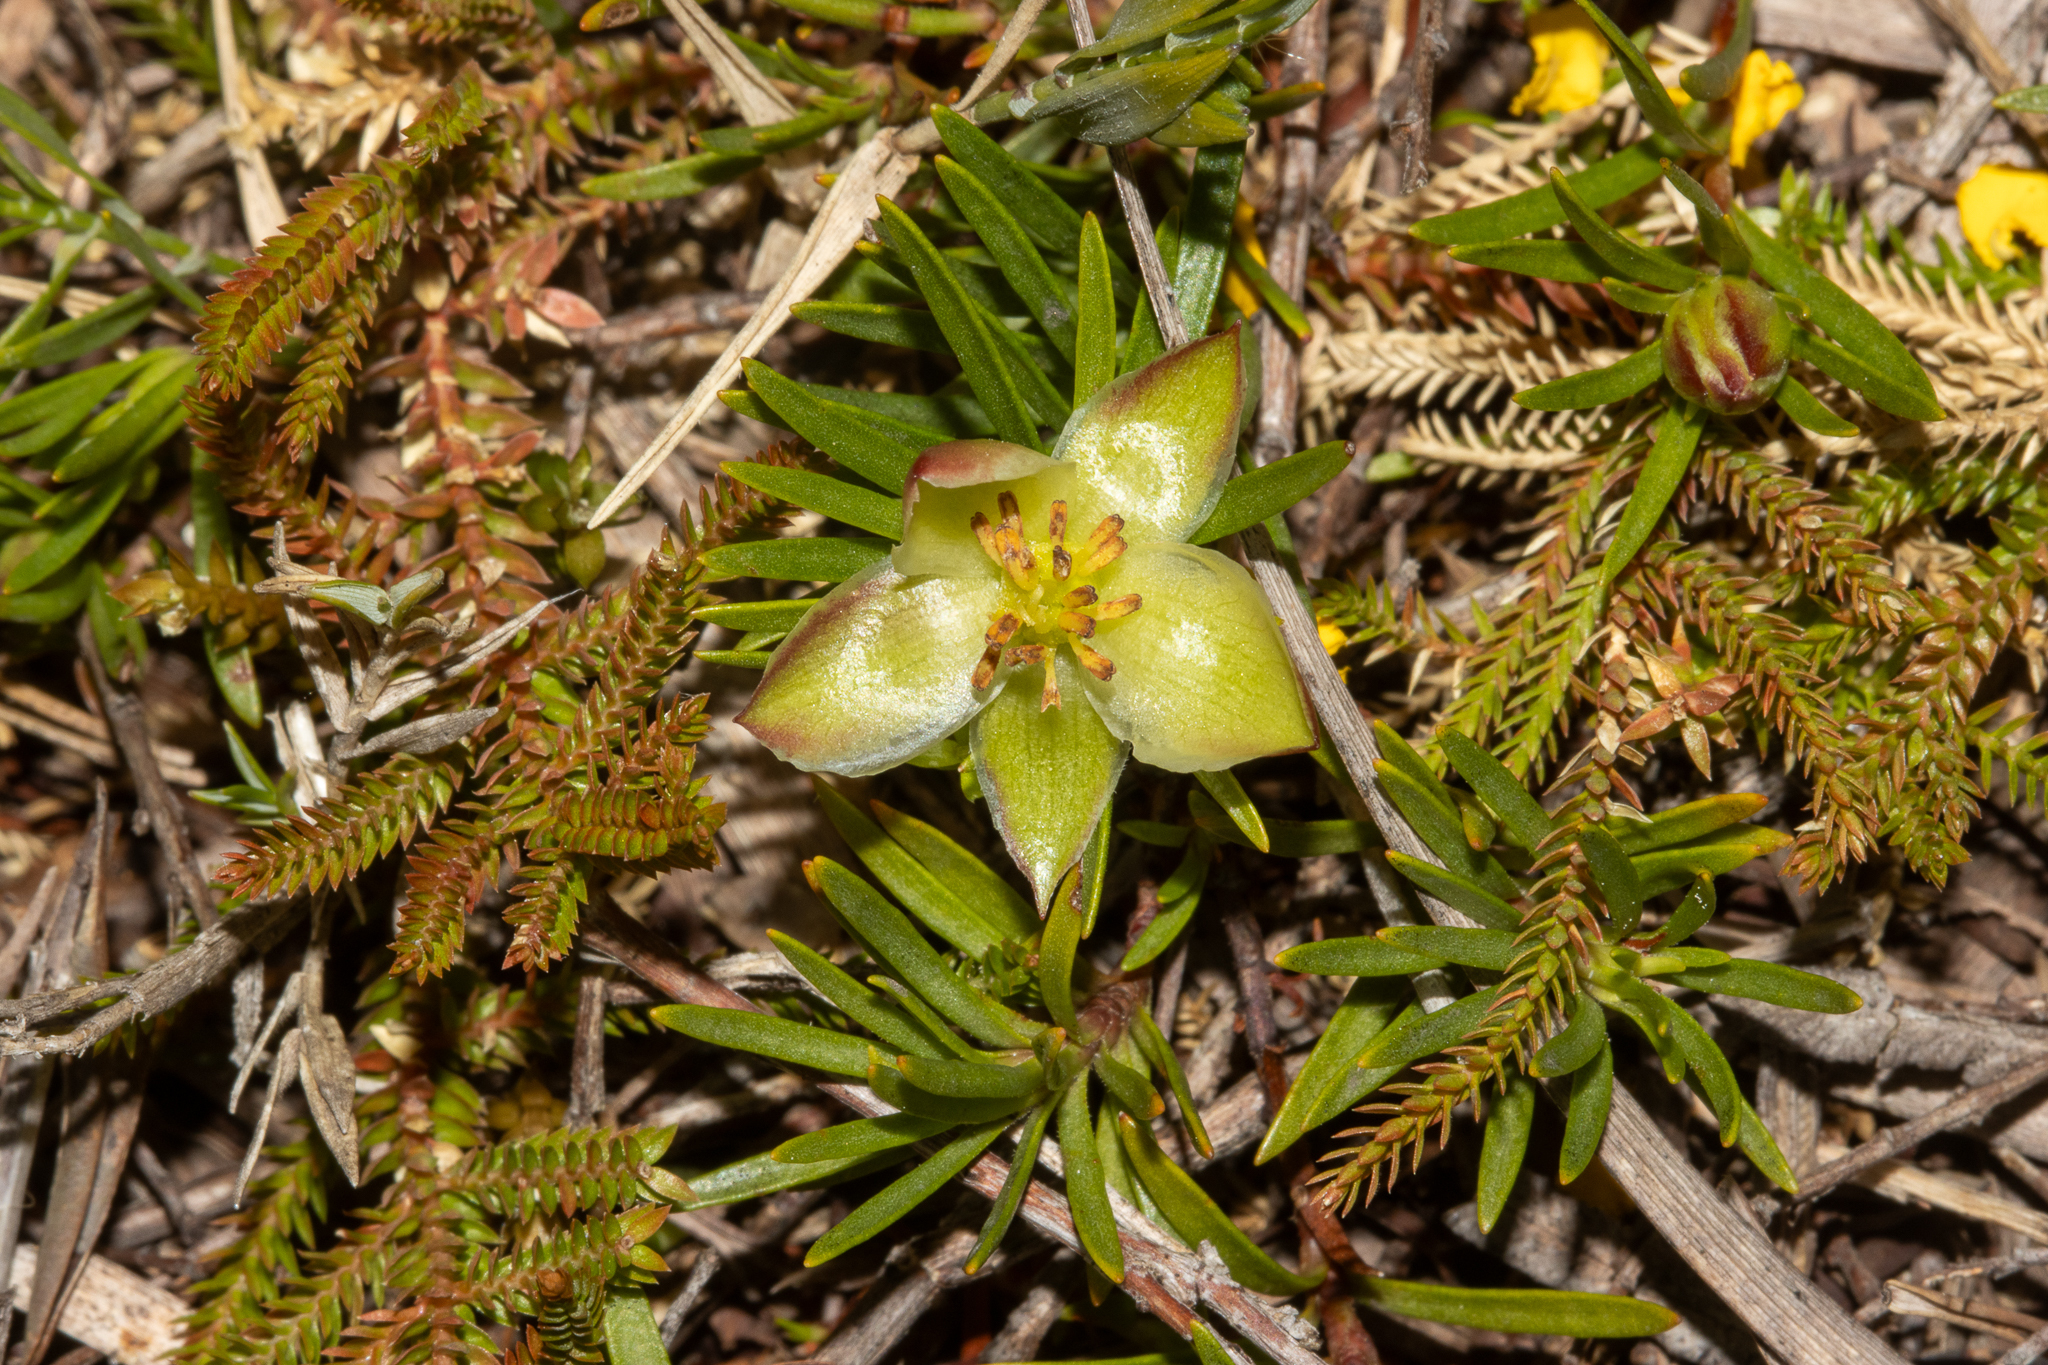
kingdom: Plantae
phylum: Tracheophyta
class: Magnoliopsida
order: Dilleniales
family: Dilleniaceae
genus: Hibbertia
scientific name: Hibbertia procumbens
